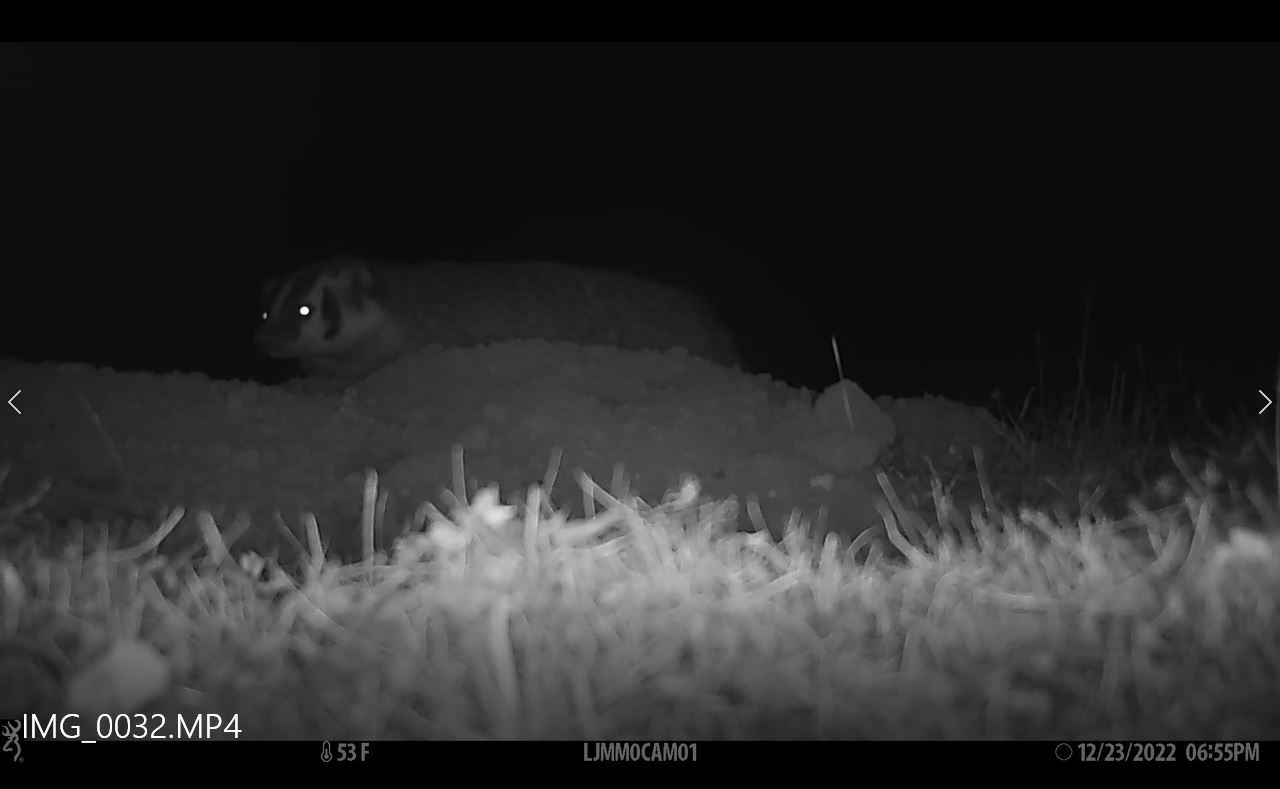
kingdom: Animalia
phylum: Chordata
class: Mammalia
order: Carnivora
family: Mustelidae
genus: Taxidea
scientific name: Taxidea taxus
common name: American badger
